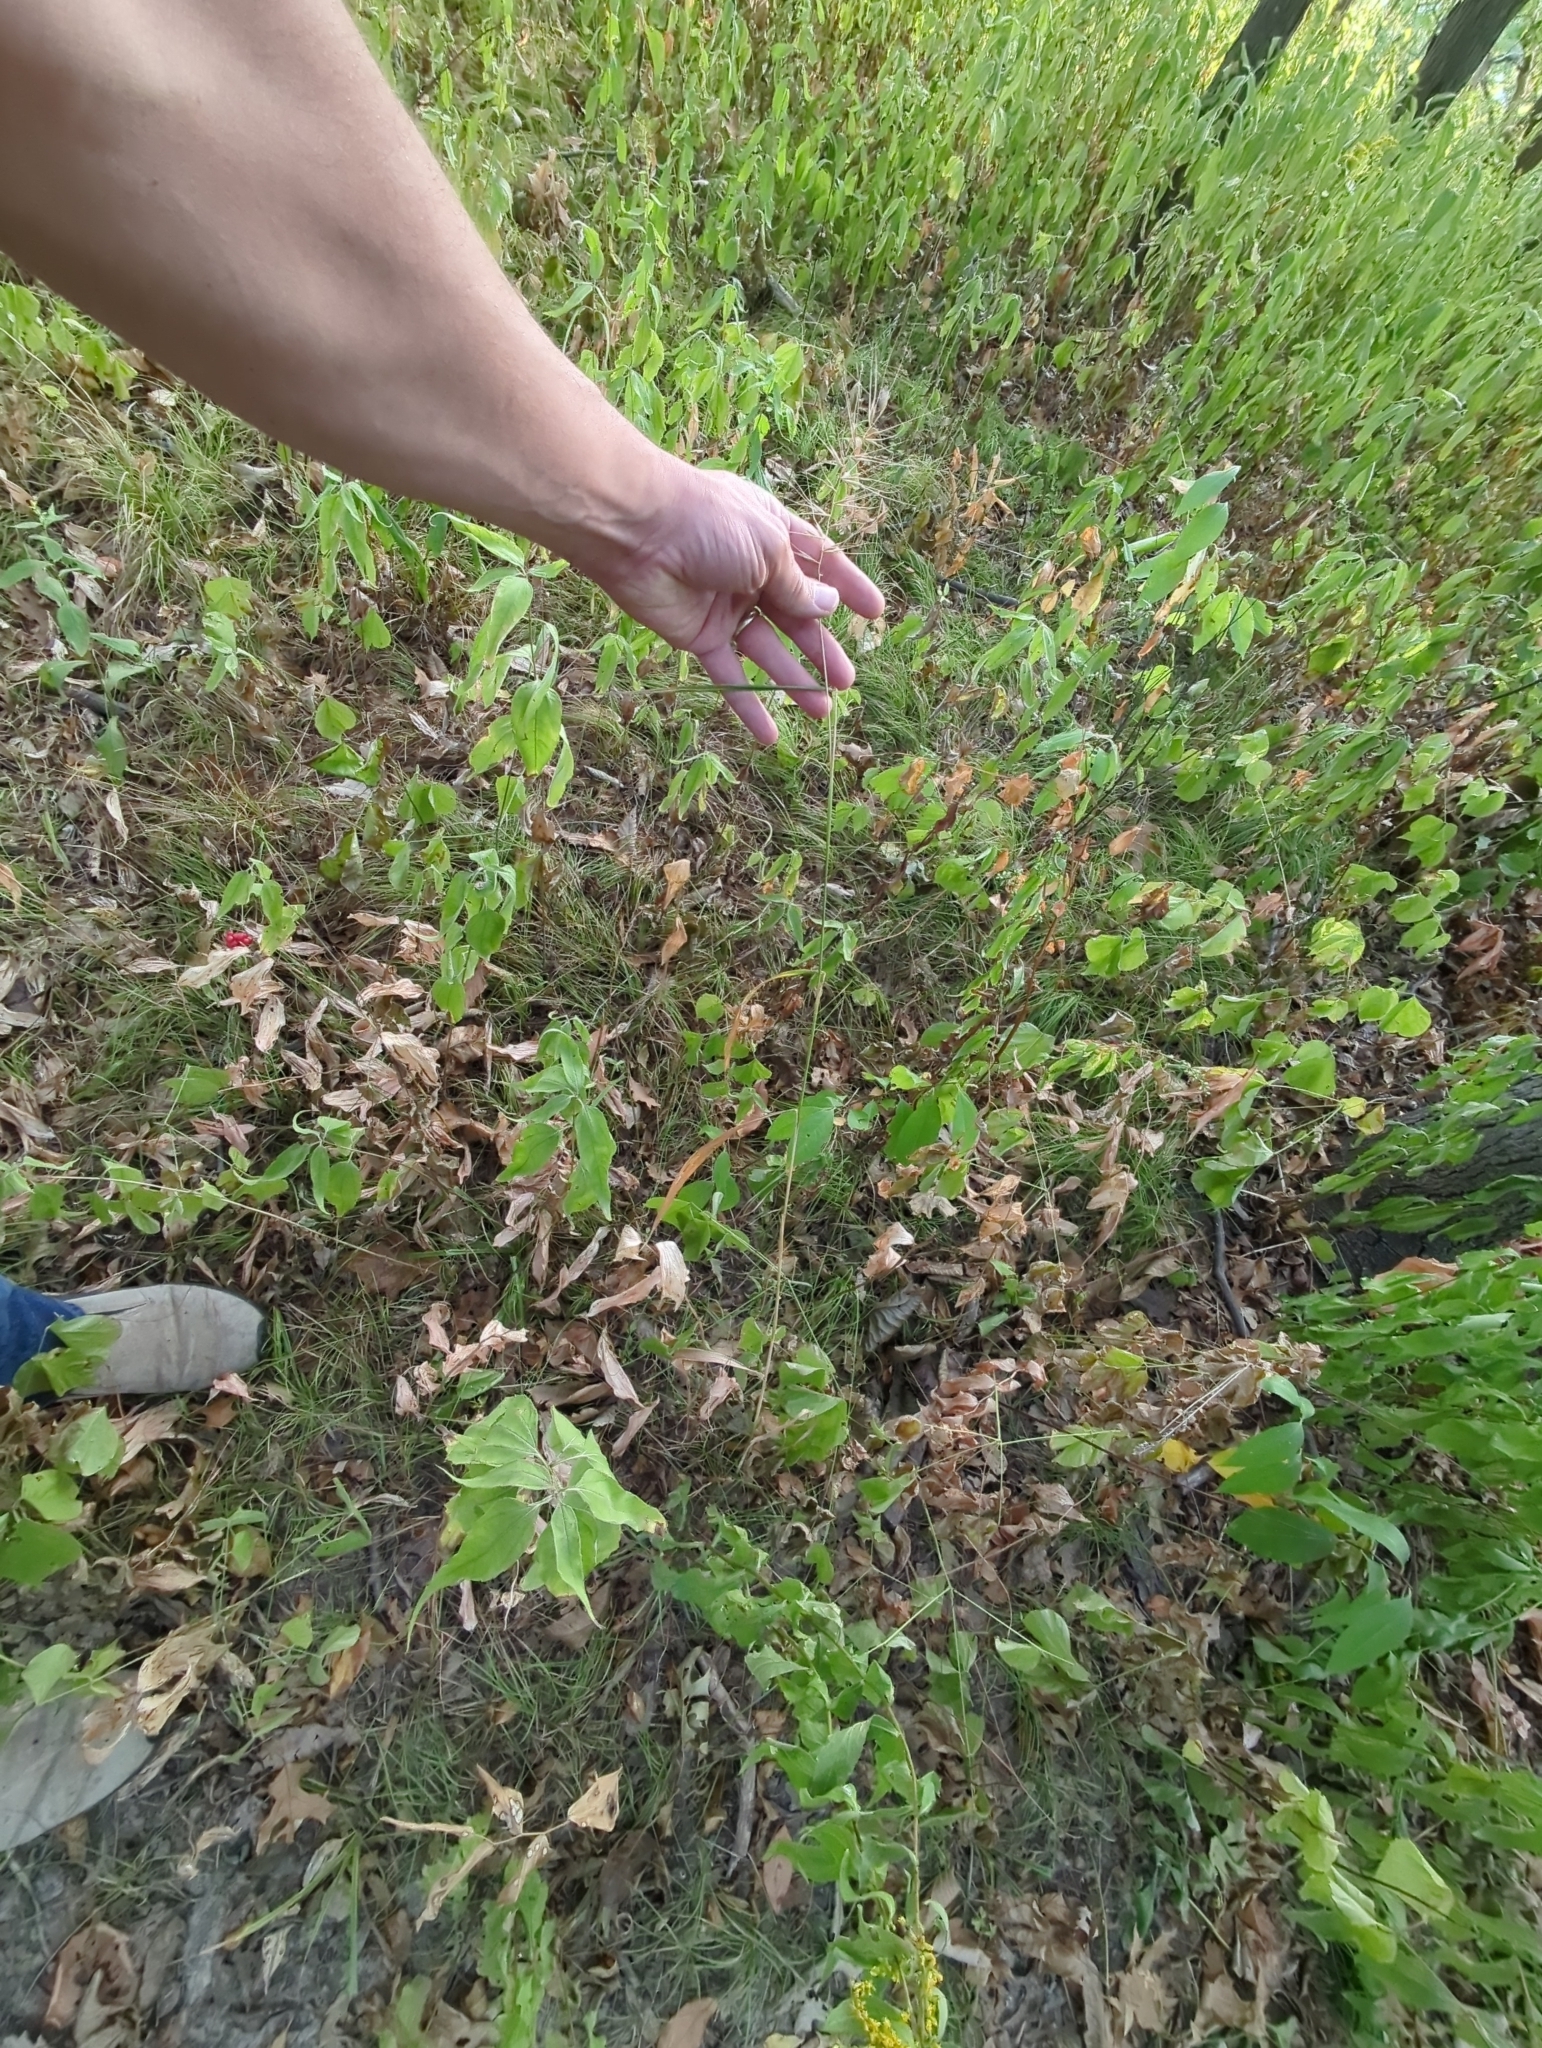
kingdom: Plantae
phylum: Tracheophyta
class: Liliopsida
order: Poales
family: Poaceae
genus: Elymus
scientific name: Elymus hystrix
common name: Bottlebrush grass
